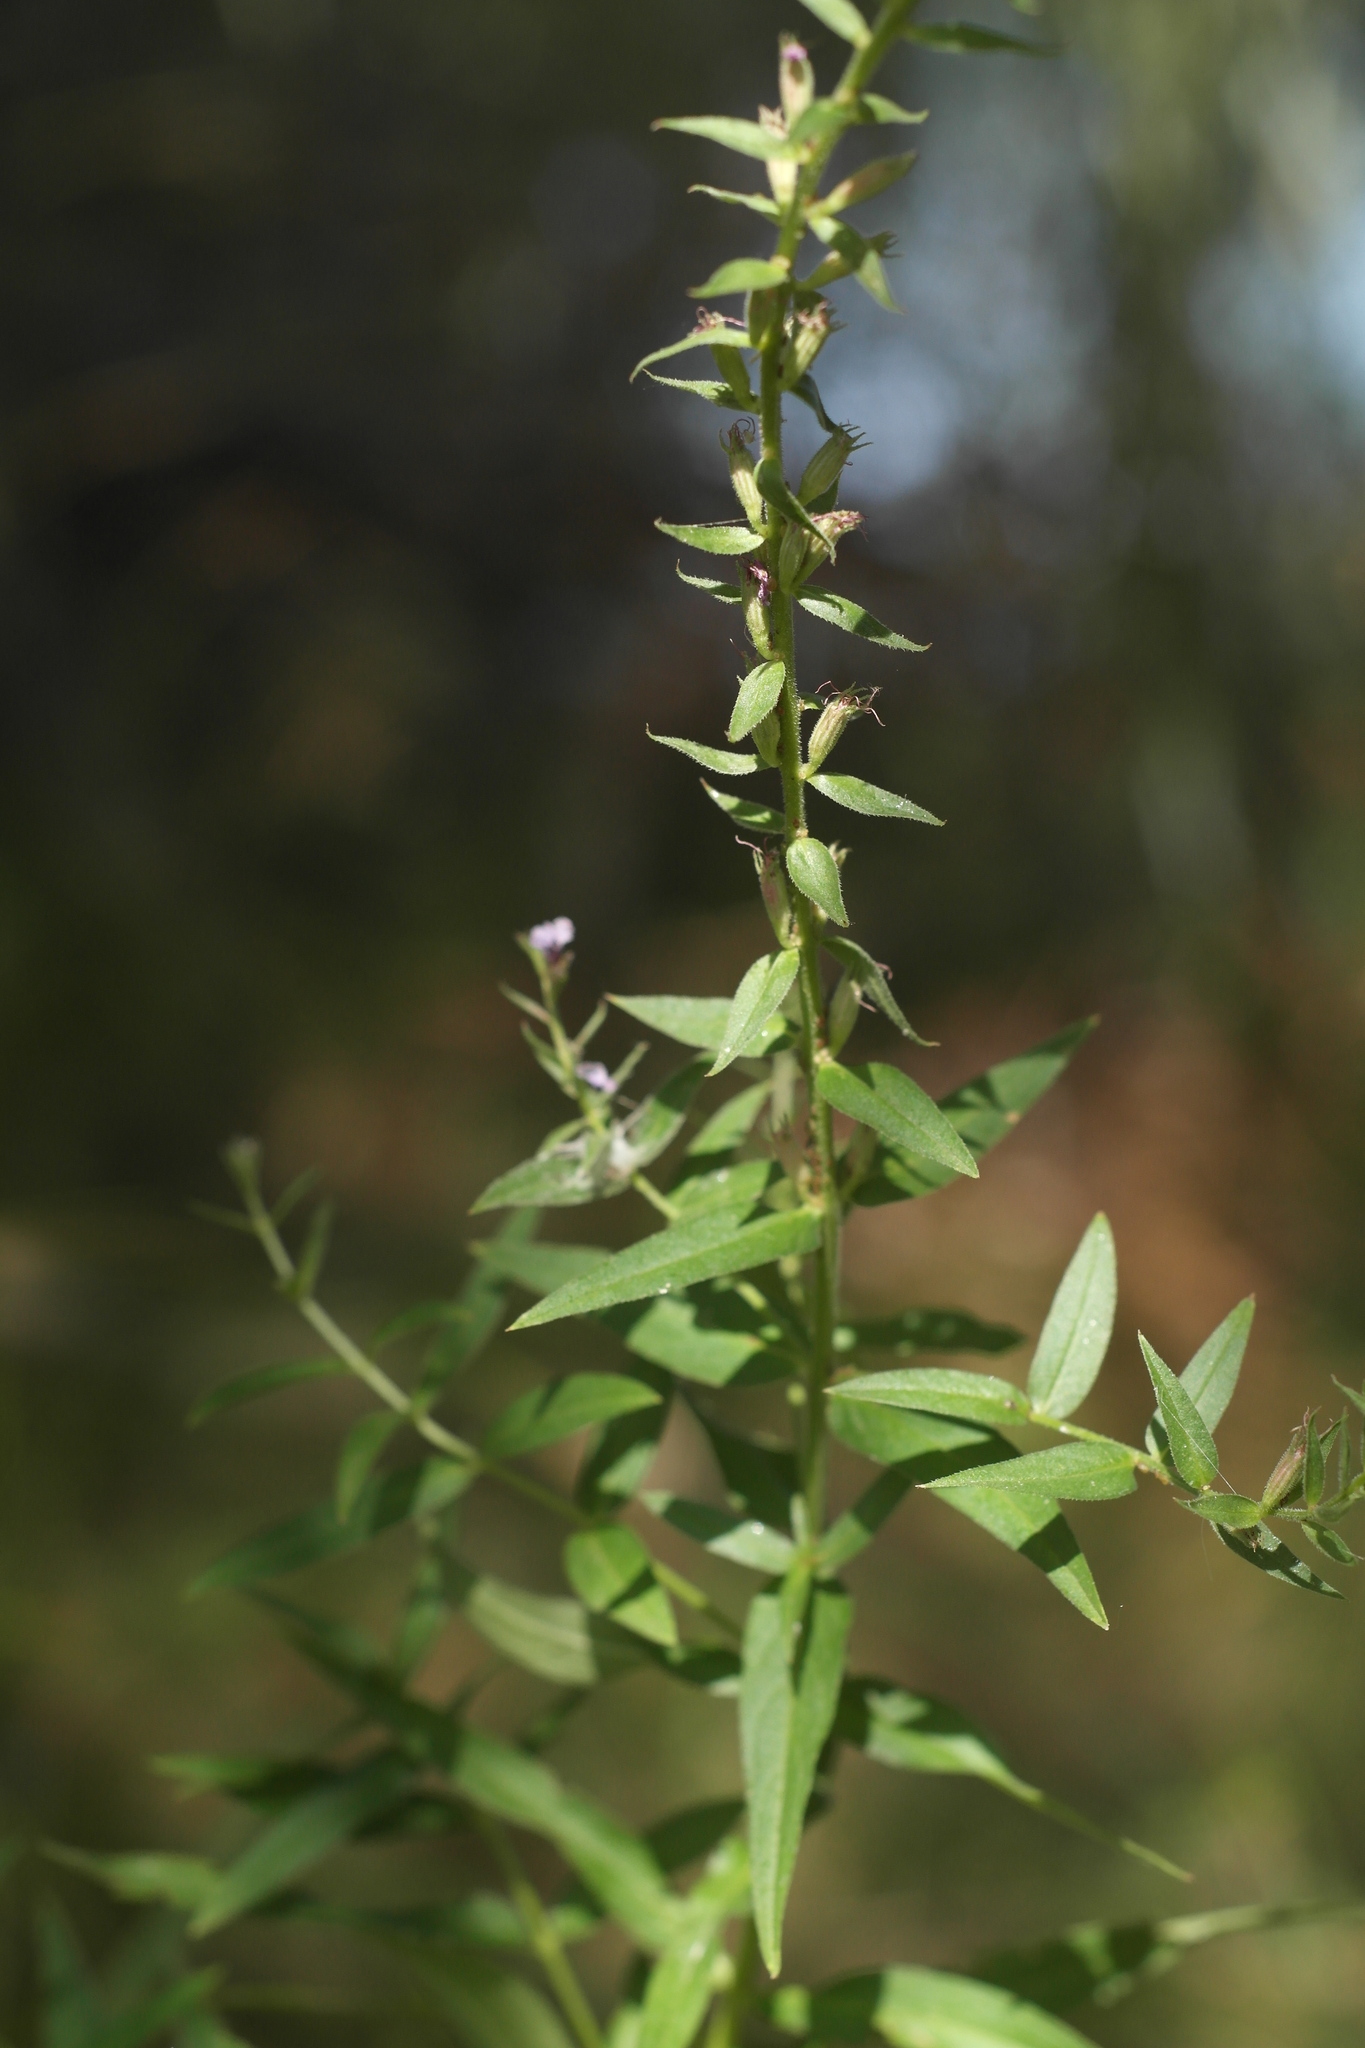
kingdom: Plantae
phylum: Tracheophyta
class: Magnoliopsida
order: Myrtales
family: Lythraceae
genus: Lythrum
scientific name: Lythrum salicaria
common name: Purple loosestrife
